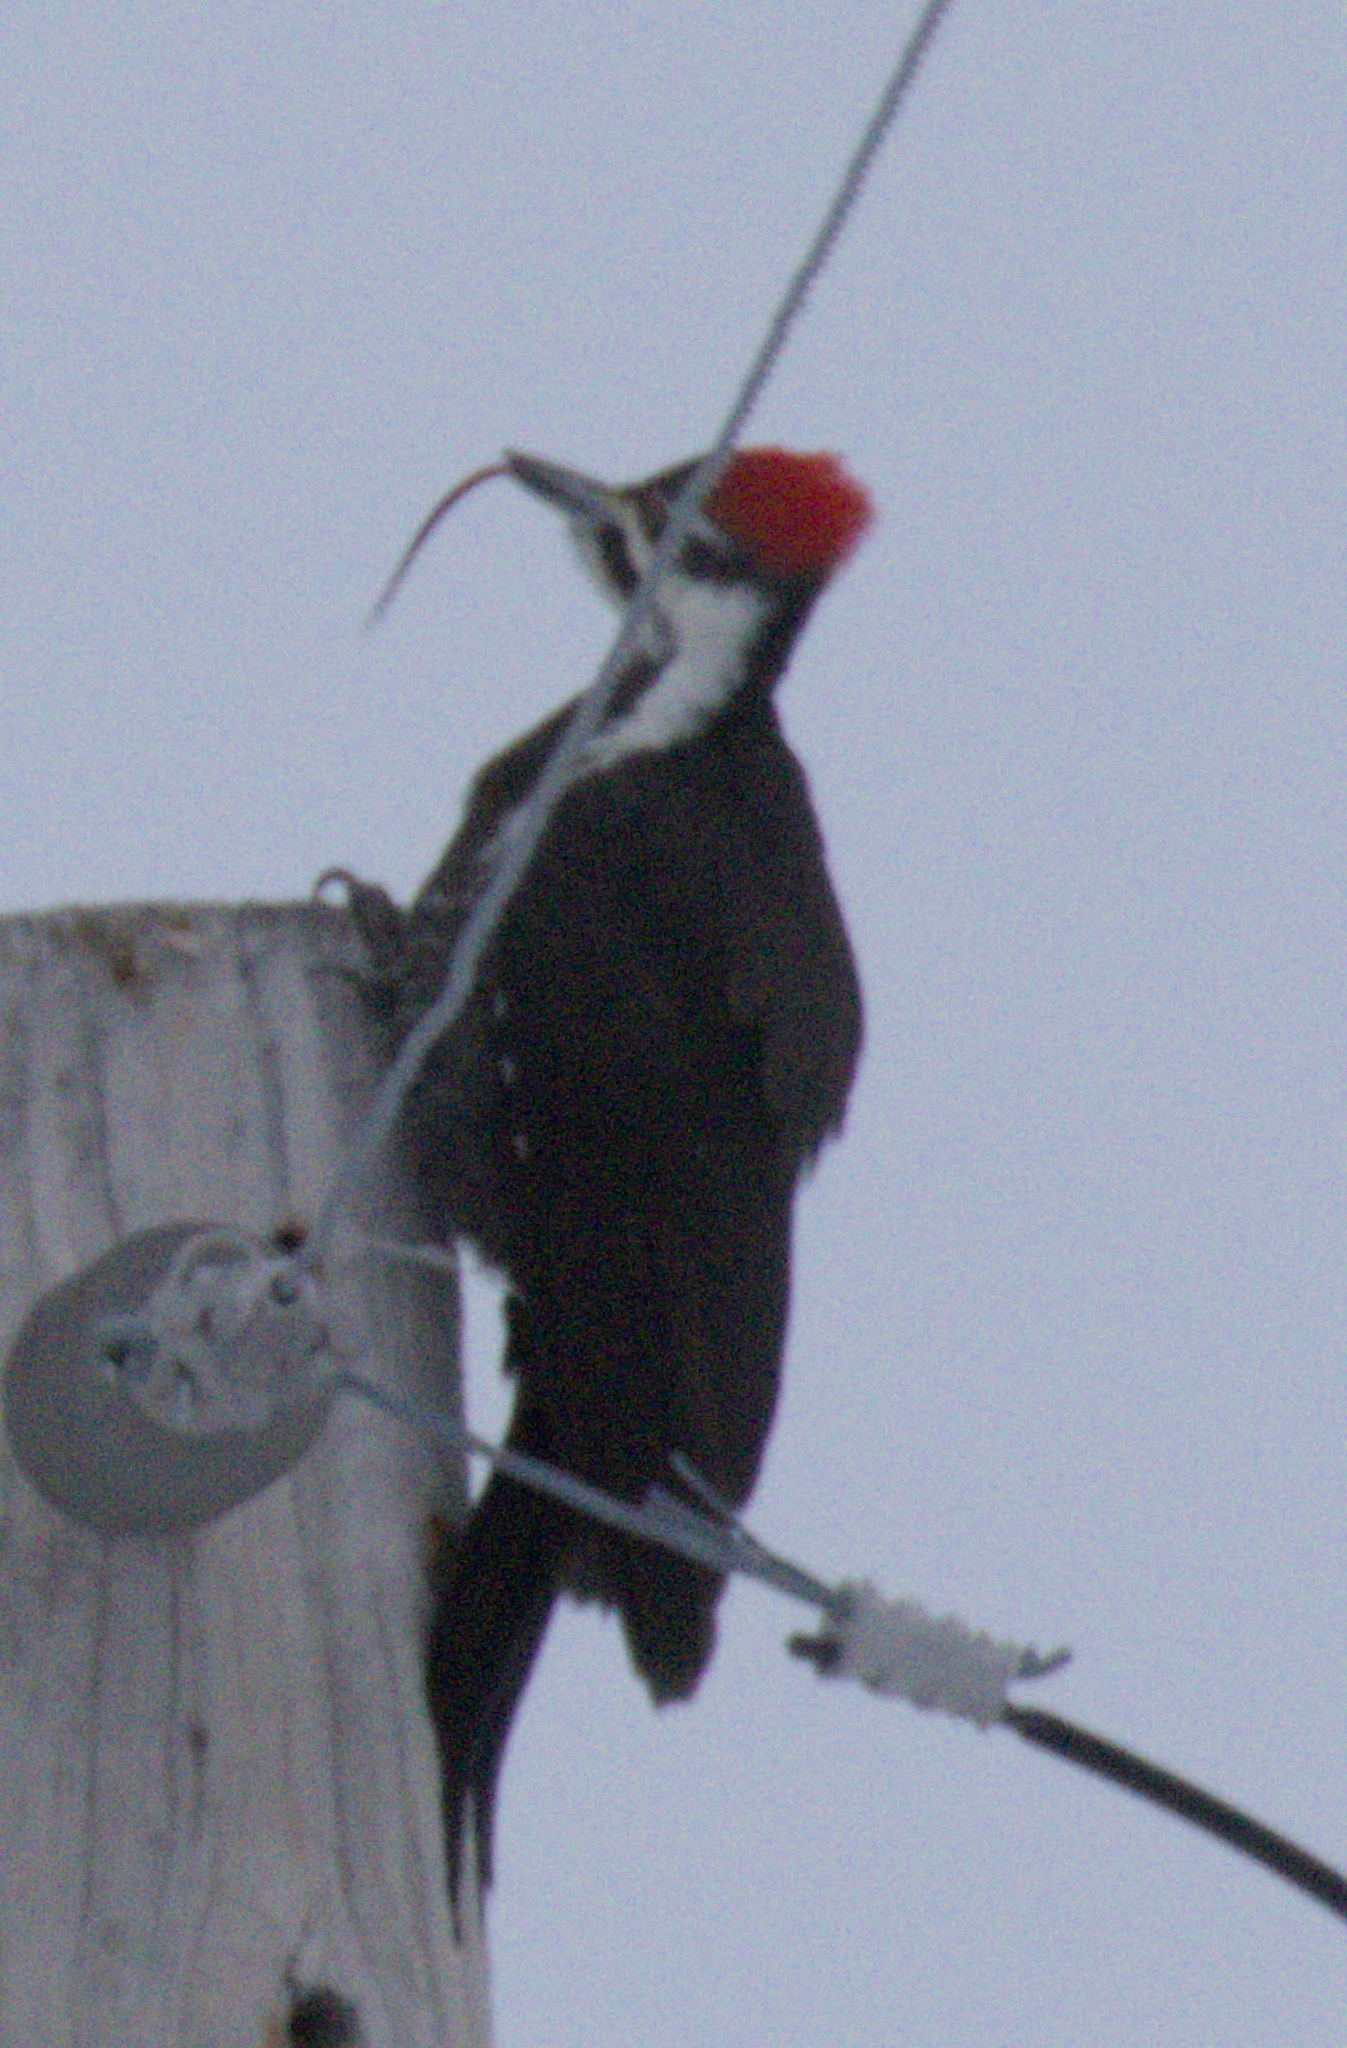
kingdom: Animalia
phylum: Chordata
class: Aves
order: Piciformes
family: Picidae
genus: Dryocopus
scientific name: Dryocopus pileatus
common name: Pileated woodpecker
